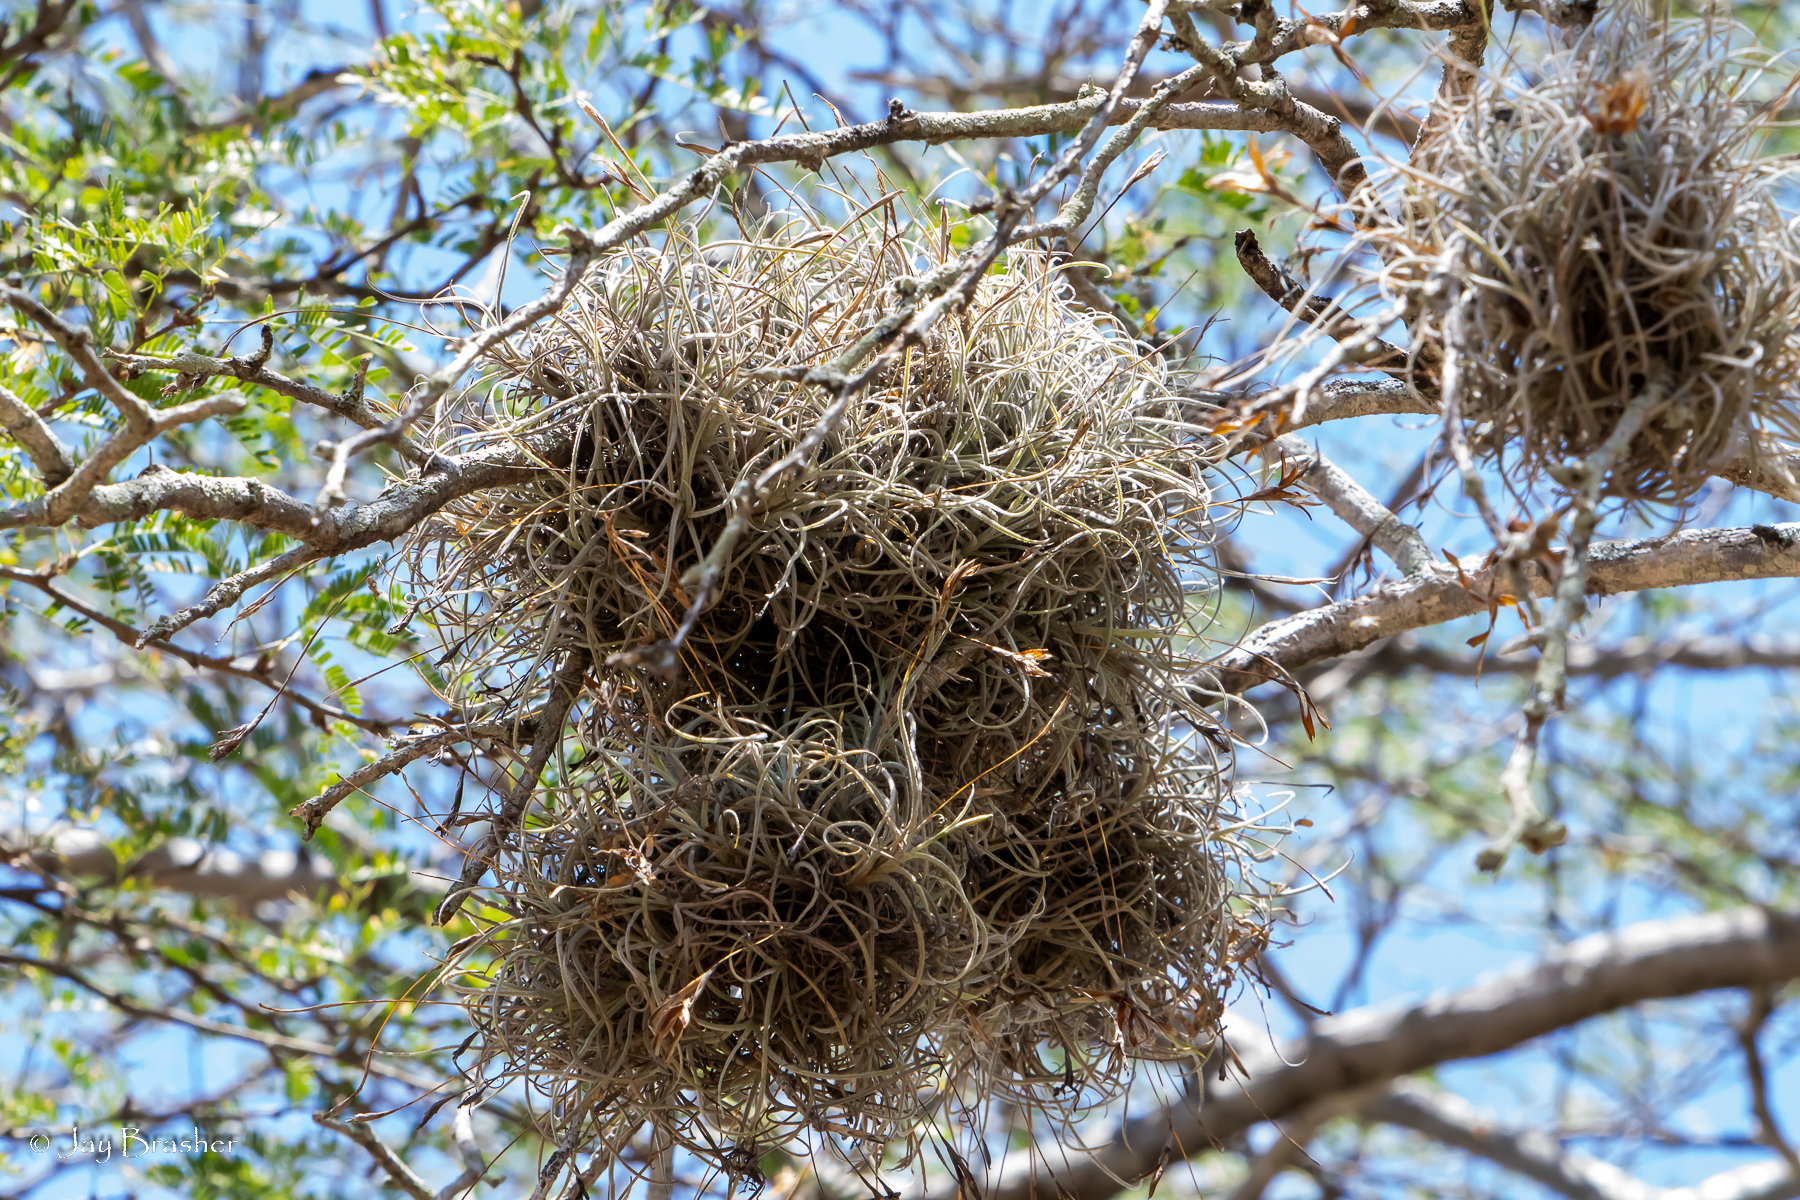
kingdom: Plantae
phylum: Tracheophyta
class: Liliopsida
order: Poales
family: Bromeliaceae
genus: Tillandsia
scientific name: Tillandsia recurvata
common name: Small ballmoss
